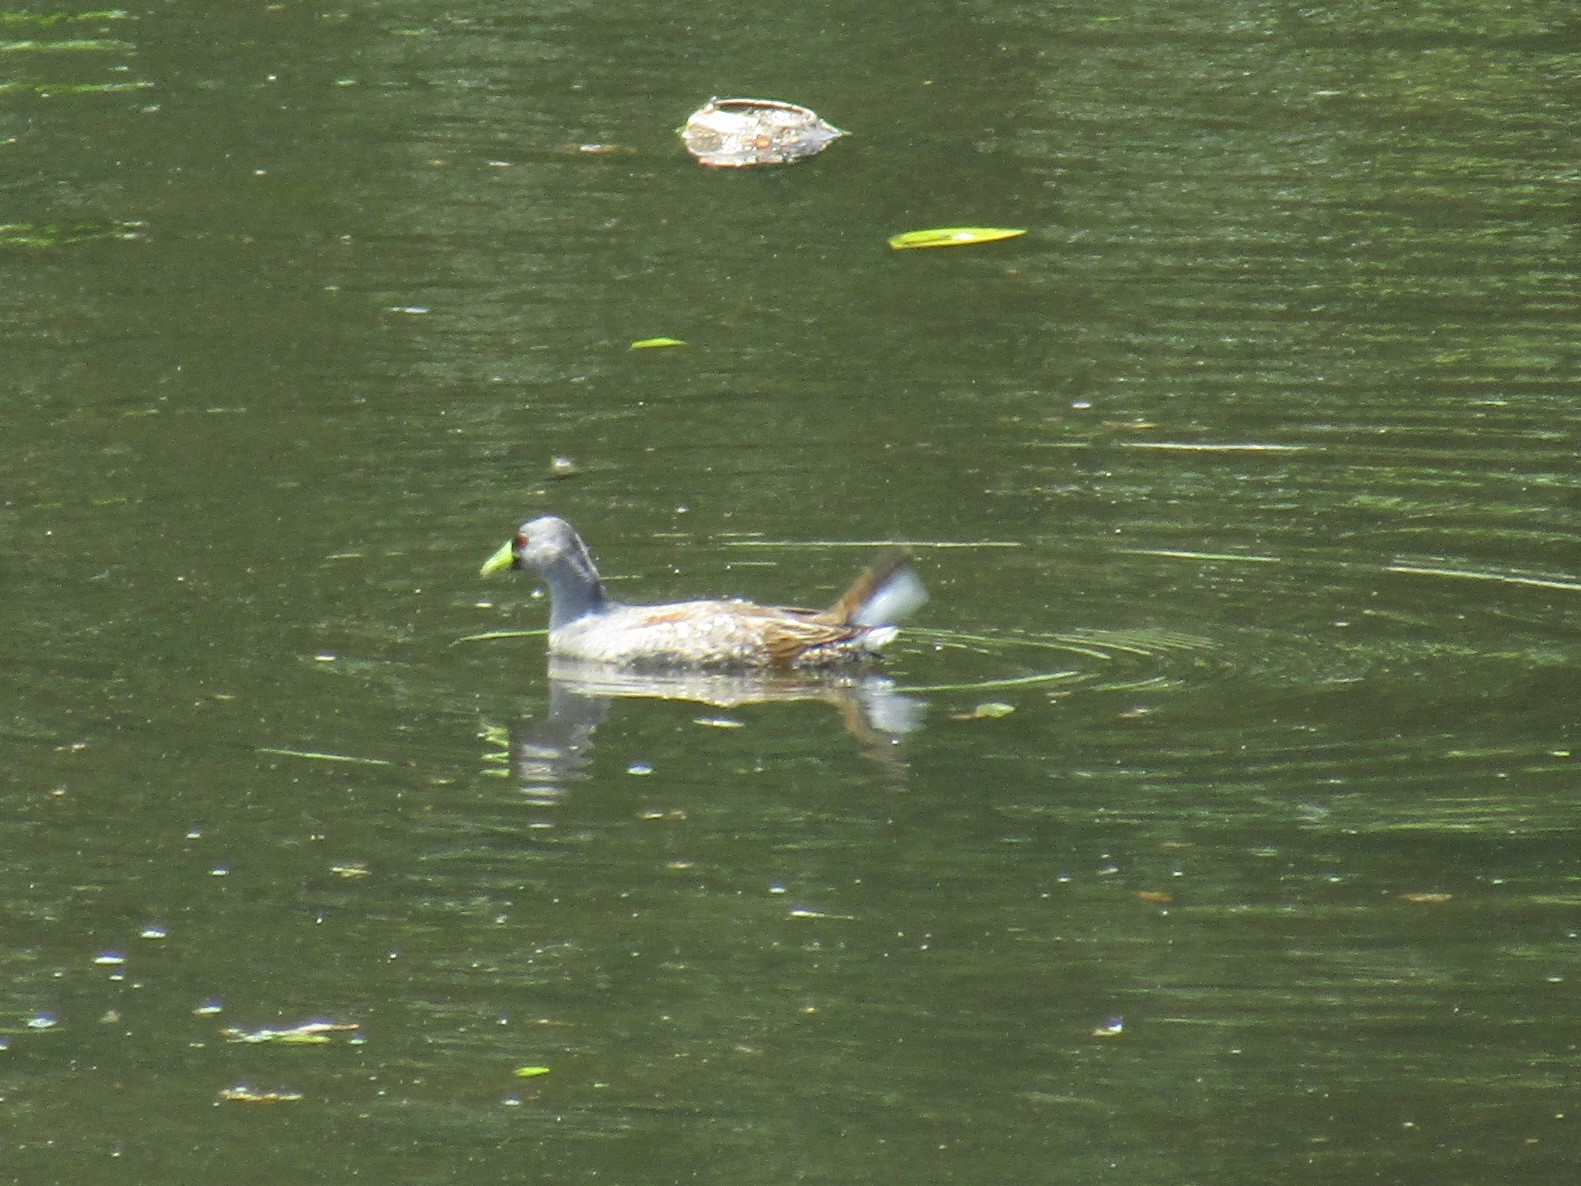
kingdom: Animalia
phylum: Chordata
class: Aves
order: Gruiformes
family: Rallidae
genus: Gallinula
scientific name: Gallinula melanops
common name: Spot-flanked gallinule
